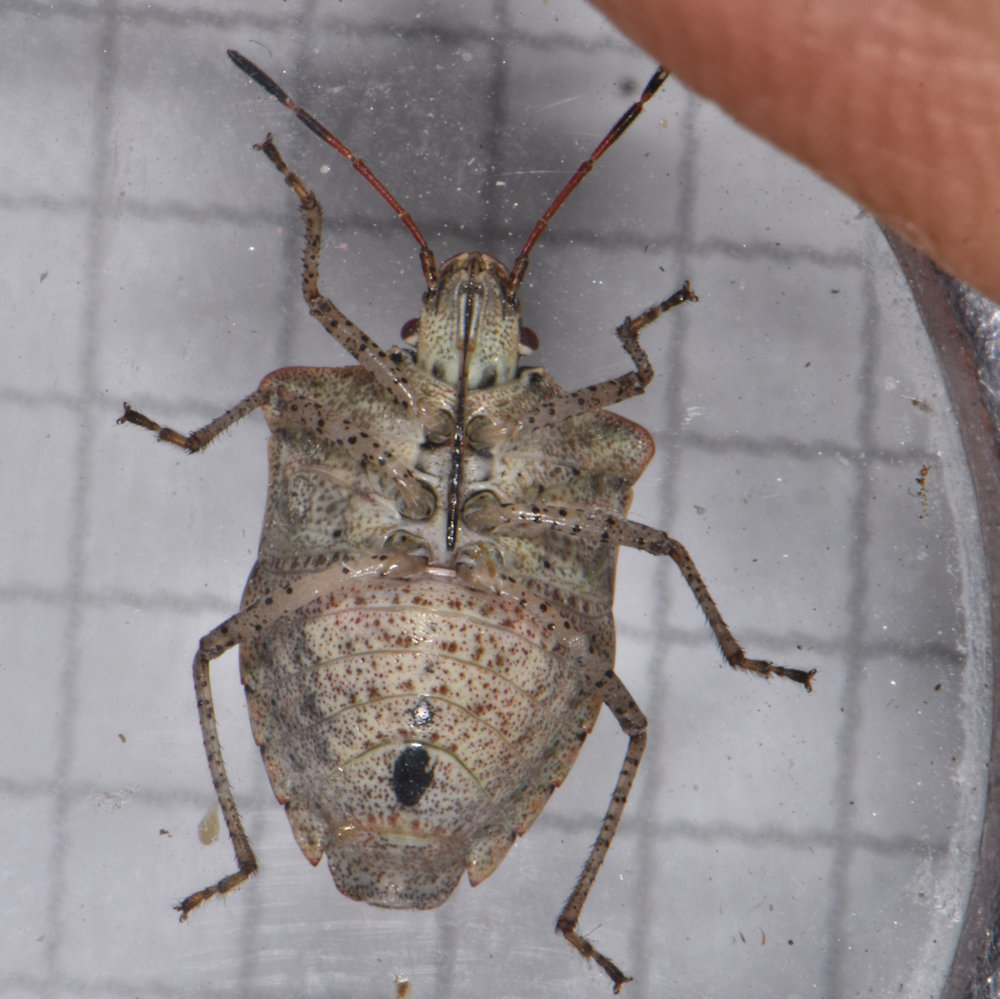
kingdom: Animalia
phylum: Arthropoda
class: Insecta
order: Hemiptera
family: Pentatomidae
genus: Euschistus
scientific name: Euschistus tristigmus
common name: Dusky stink bug
